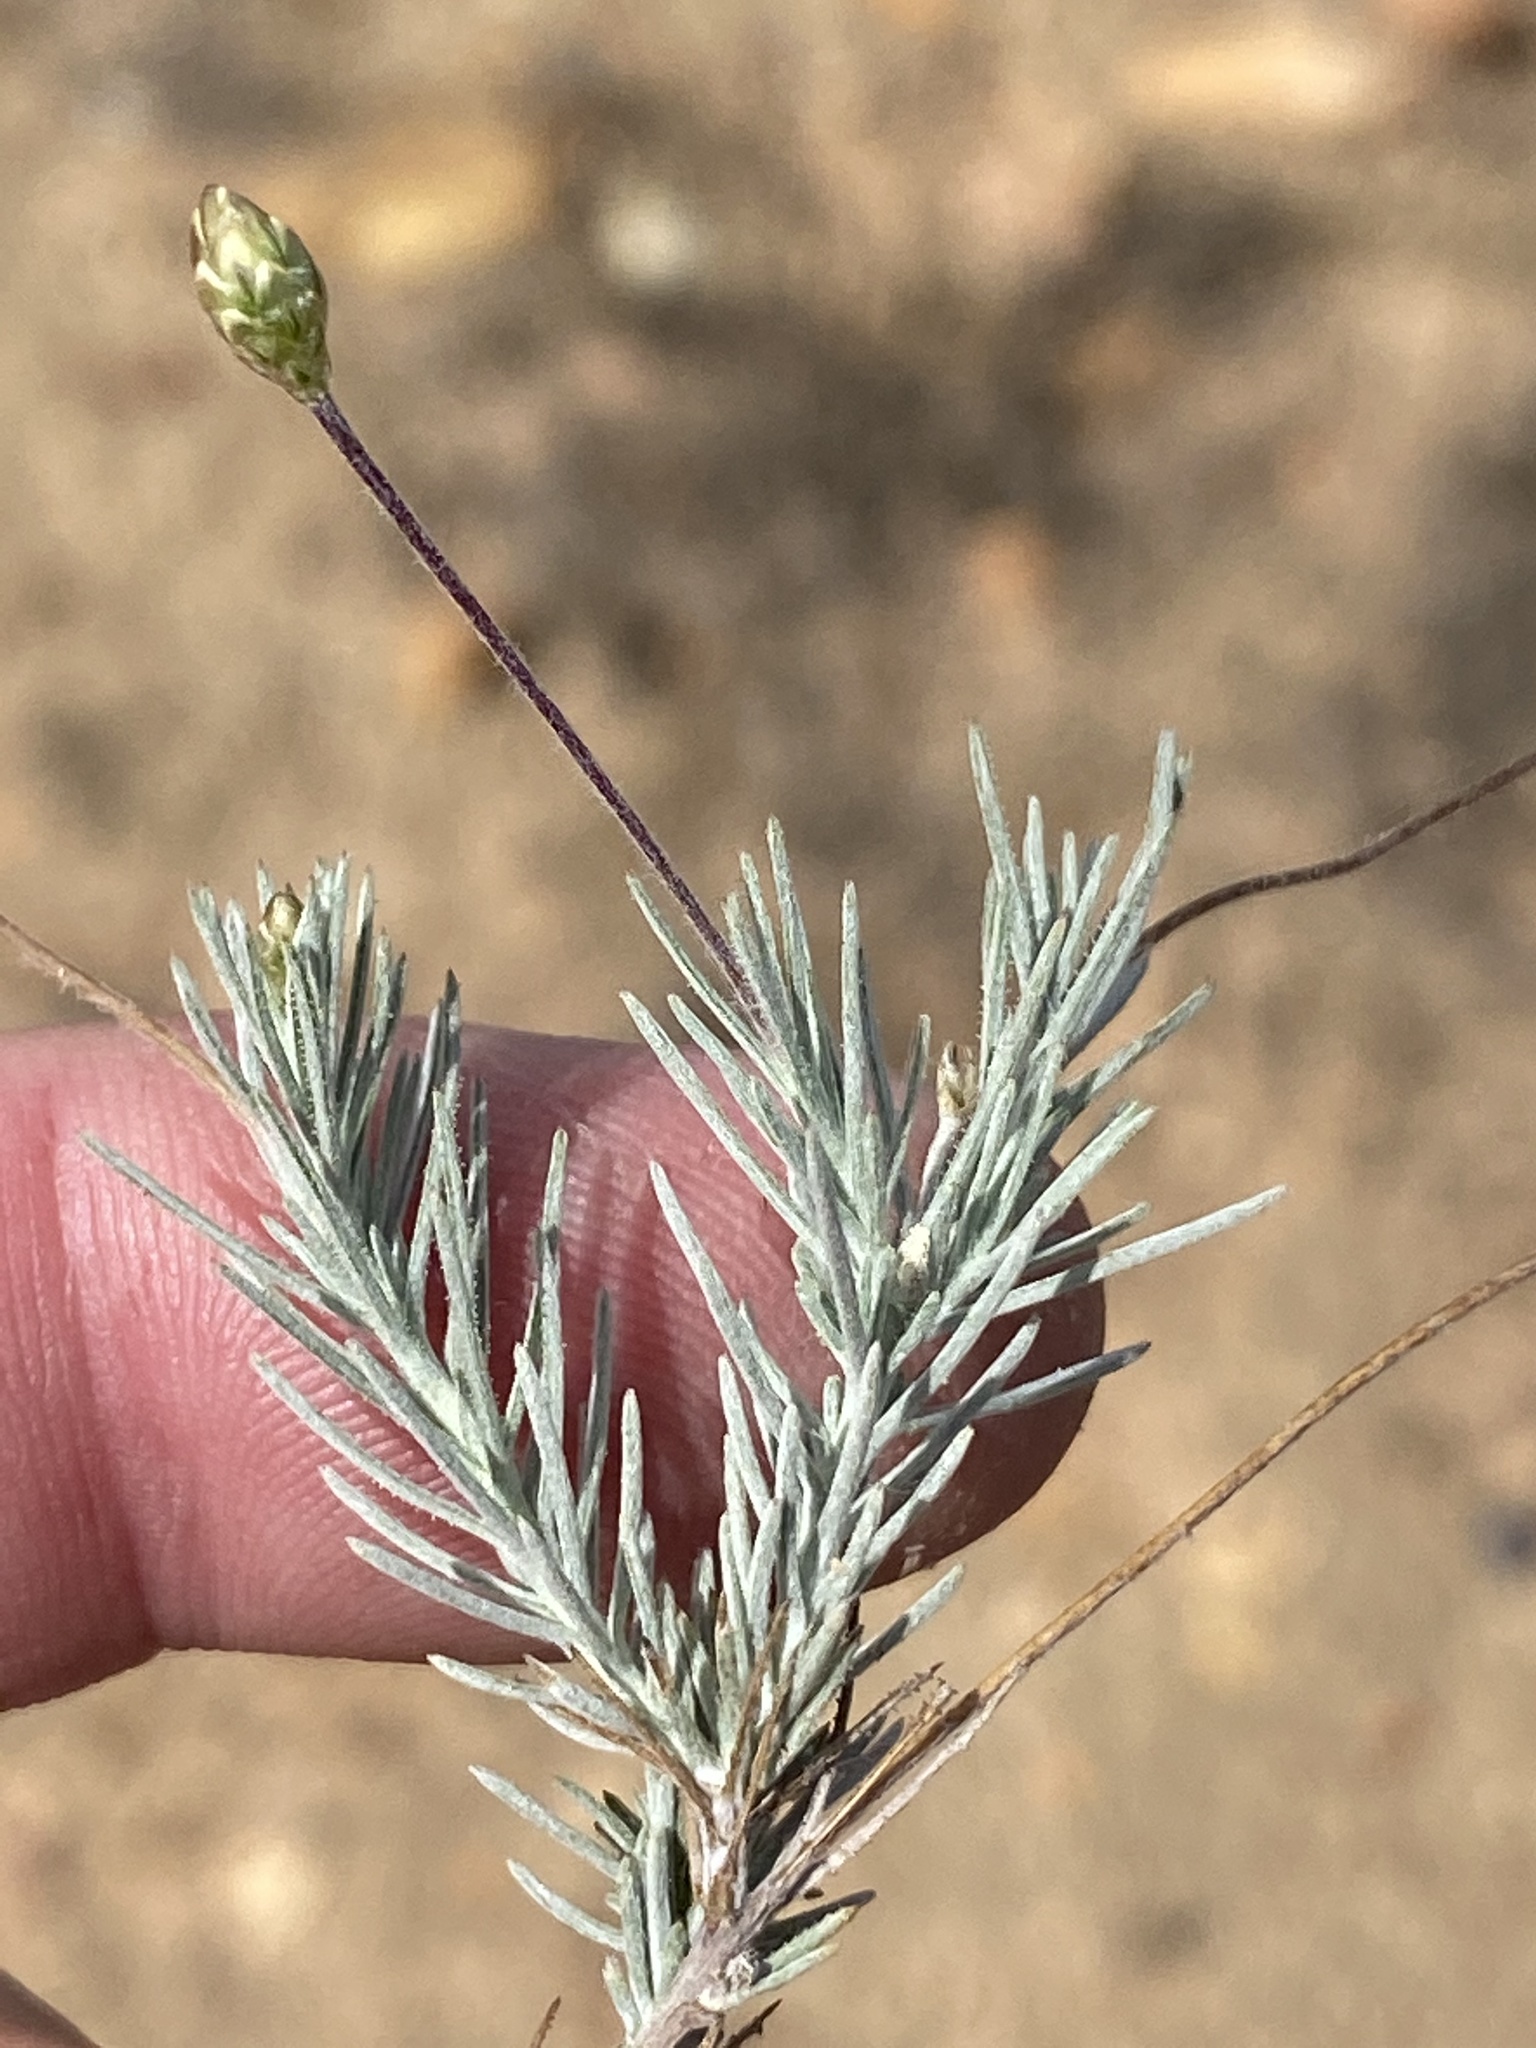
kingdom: Plantae
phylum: Tracheophyta
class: Magnoliopsida
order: Asterales
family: Asteraceae
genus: Leysera
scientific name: Leysera gnaphalodes
